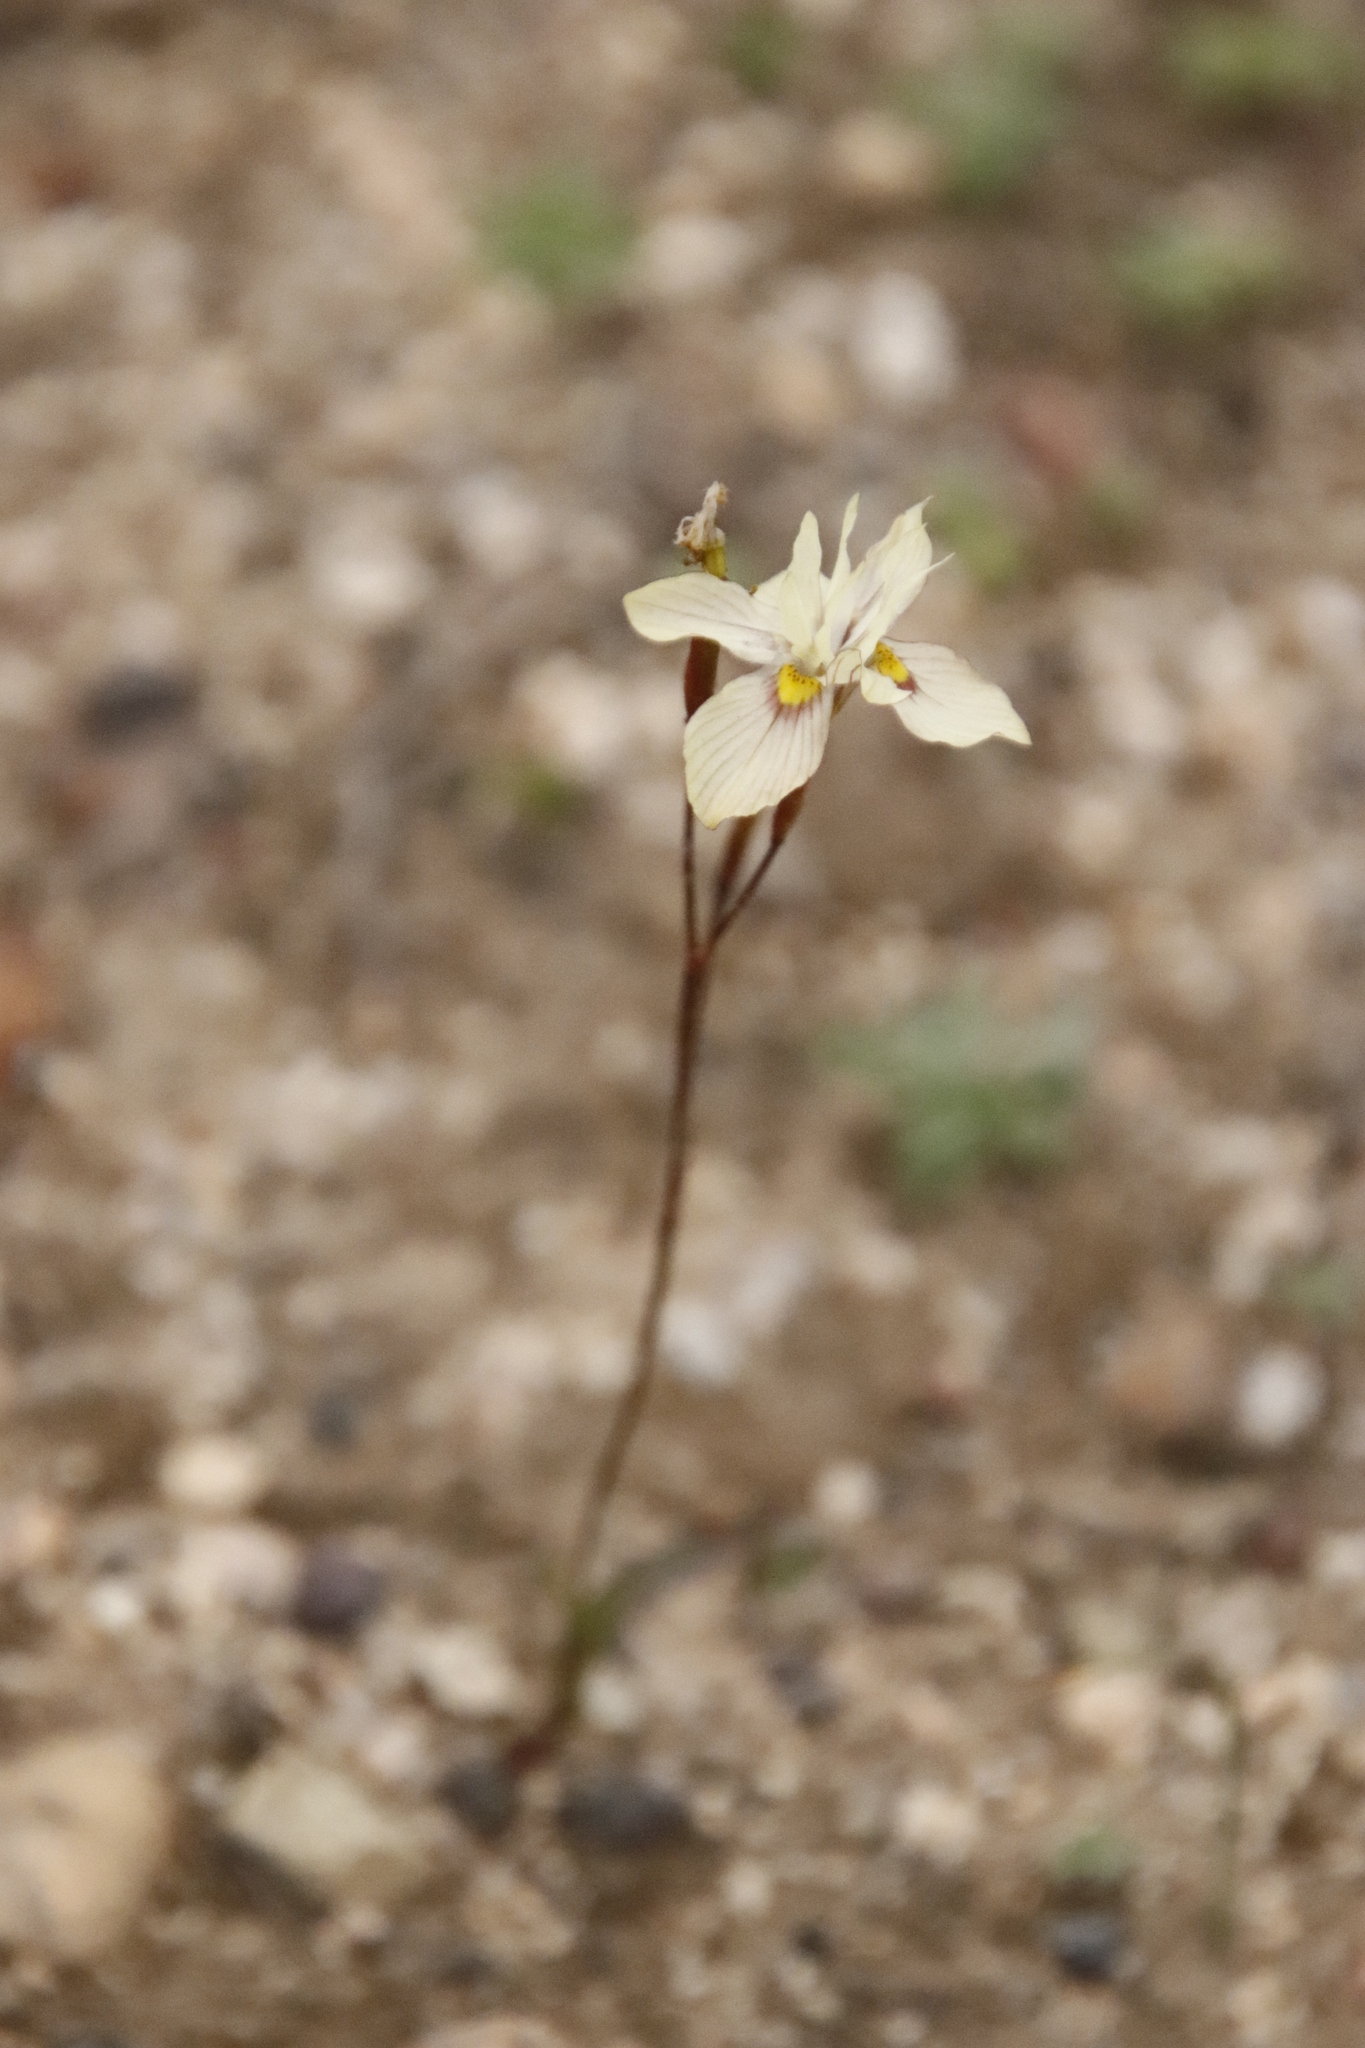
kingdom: Plantae
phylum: Tracheophyta
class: Liliopsida
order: Asparagales
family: Iridaceae
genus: Moraea
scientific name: Moraea gawleri
